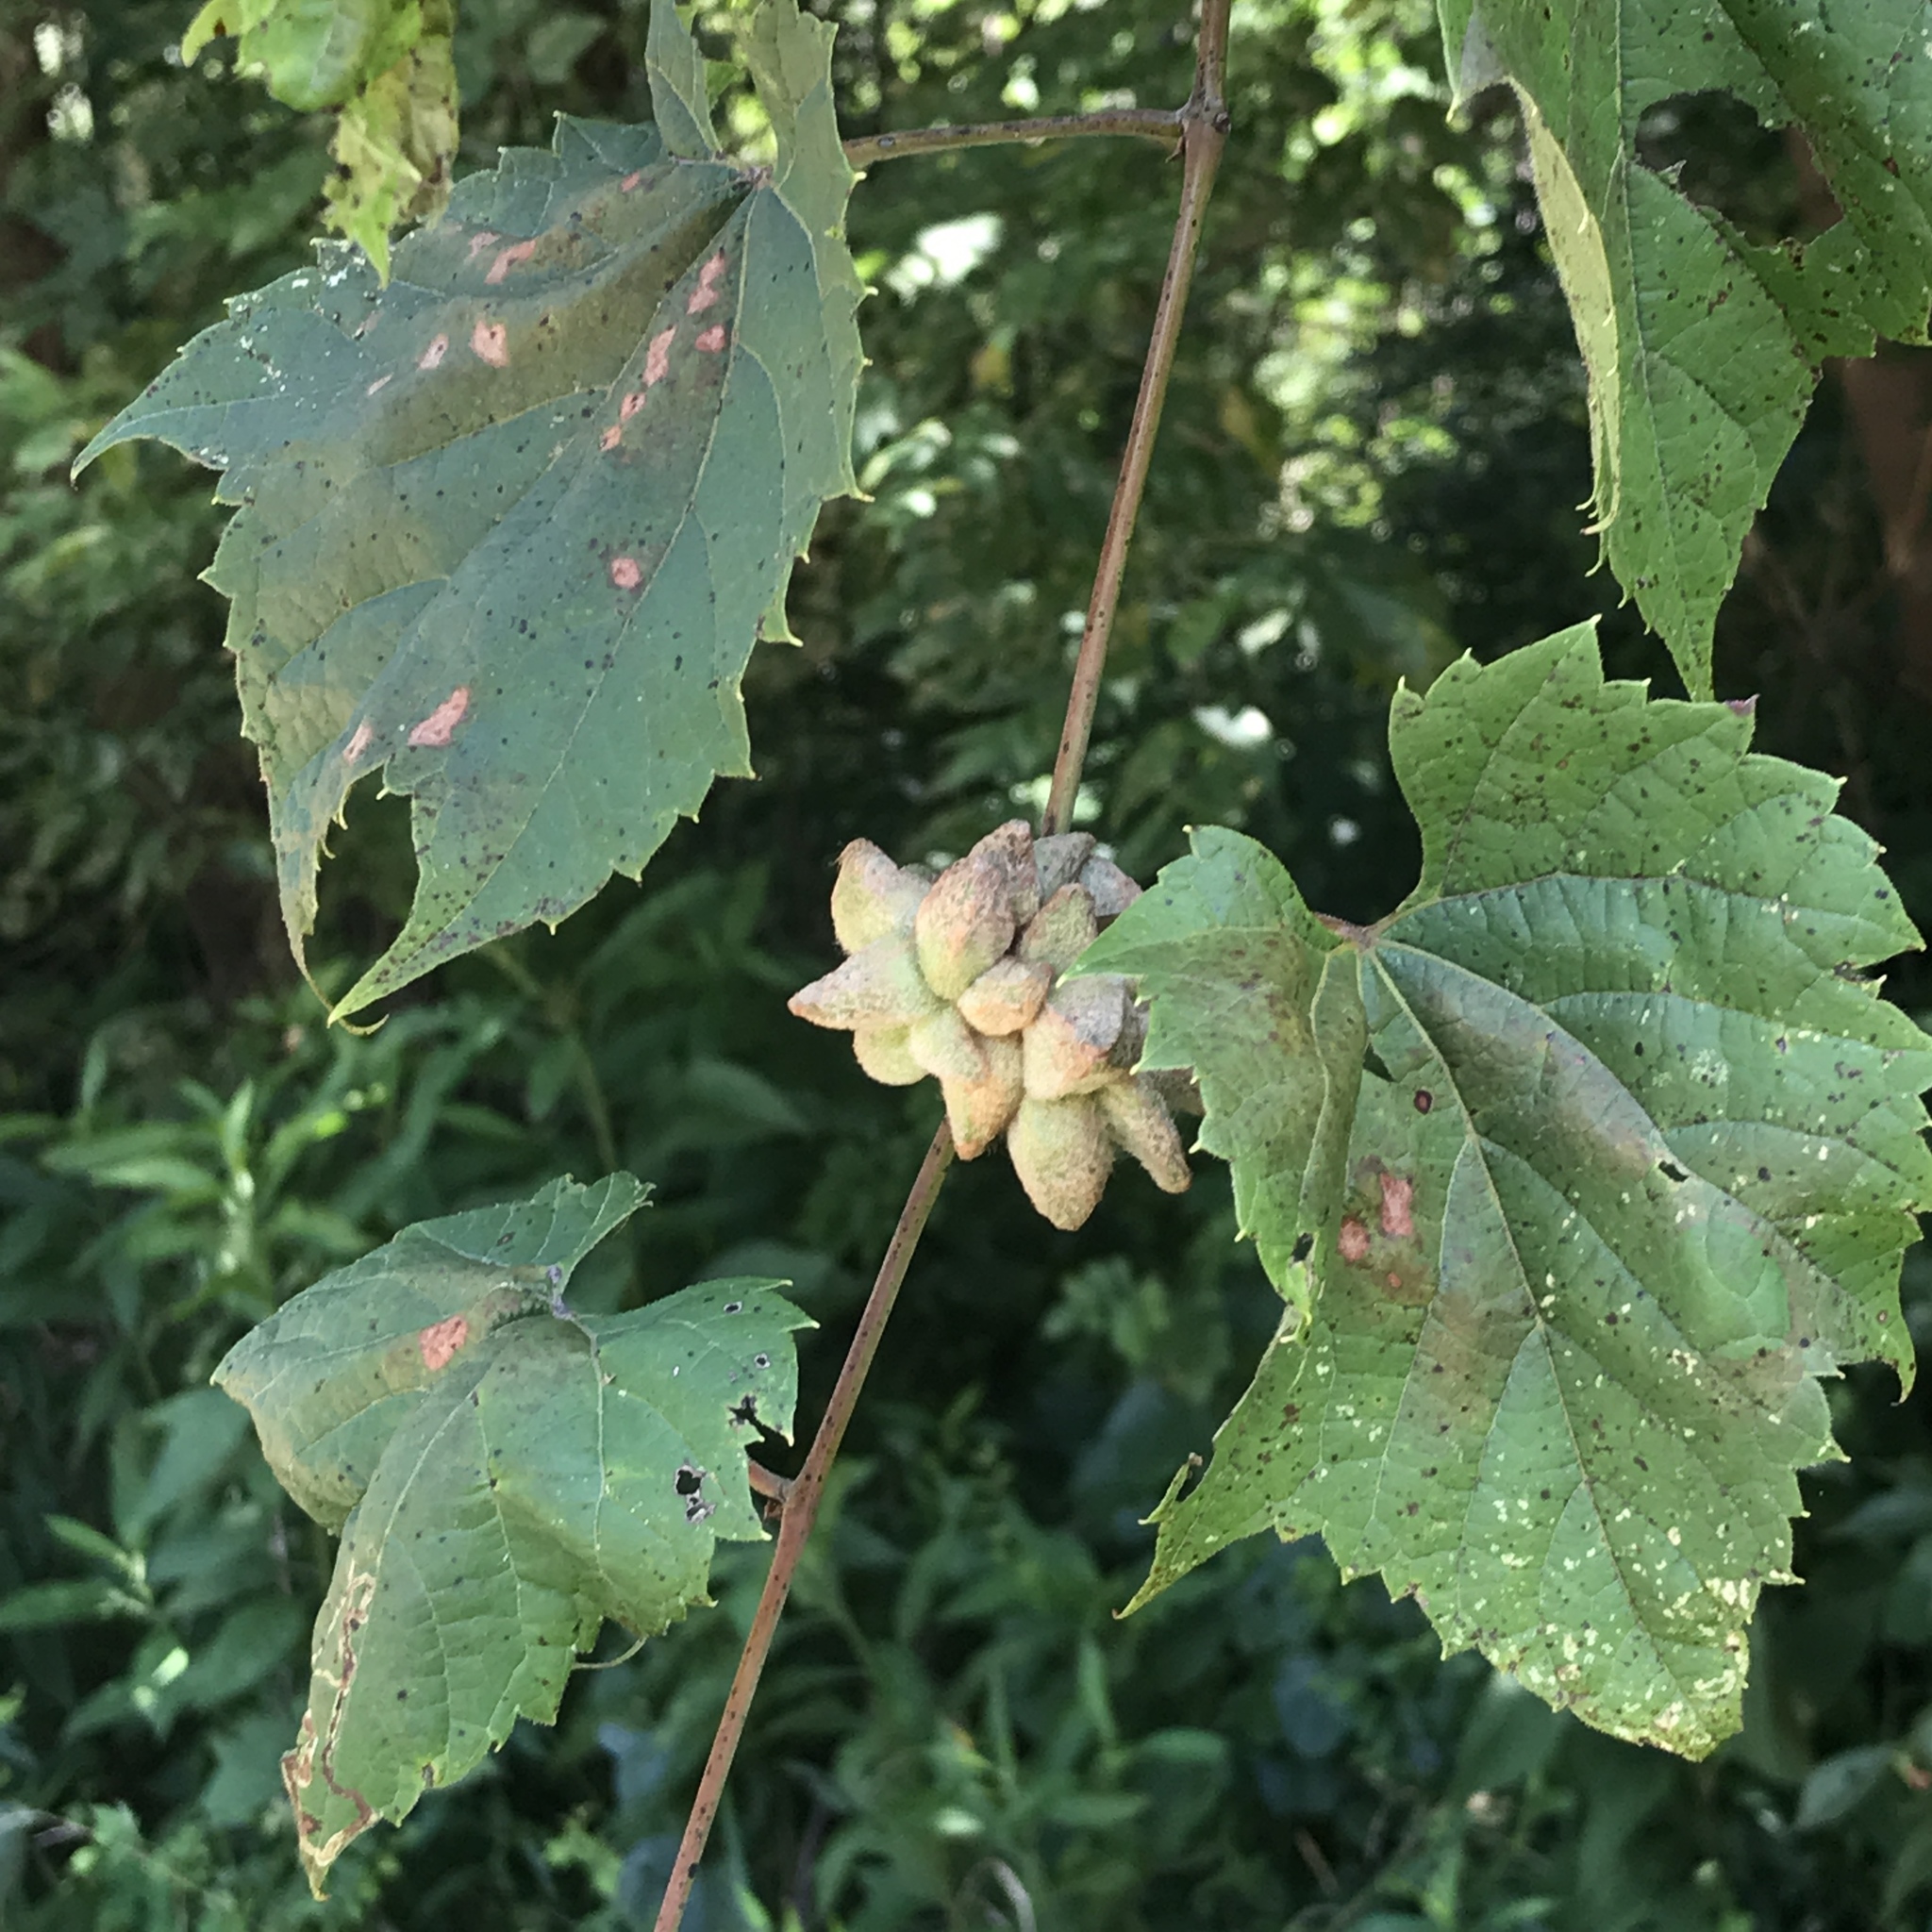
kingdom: Animalia
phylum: Arthropoda
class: Insecta
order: Diptera
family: Cecidomyiidae
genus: Ampelomyia
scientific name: Ampelomyia vitiscoryloides
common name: Grape filbert gall
